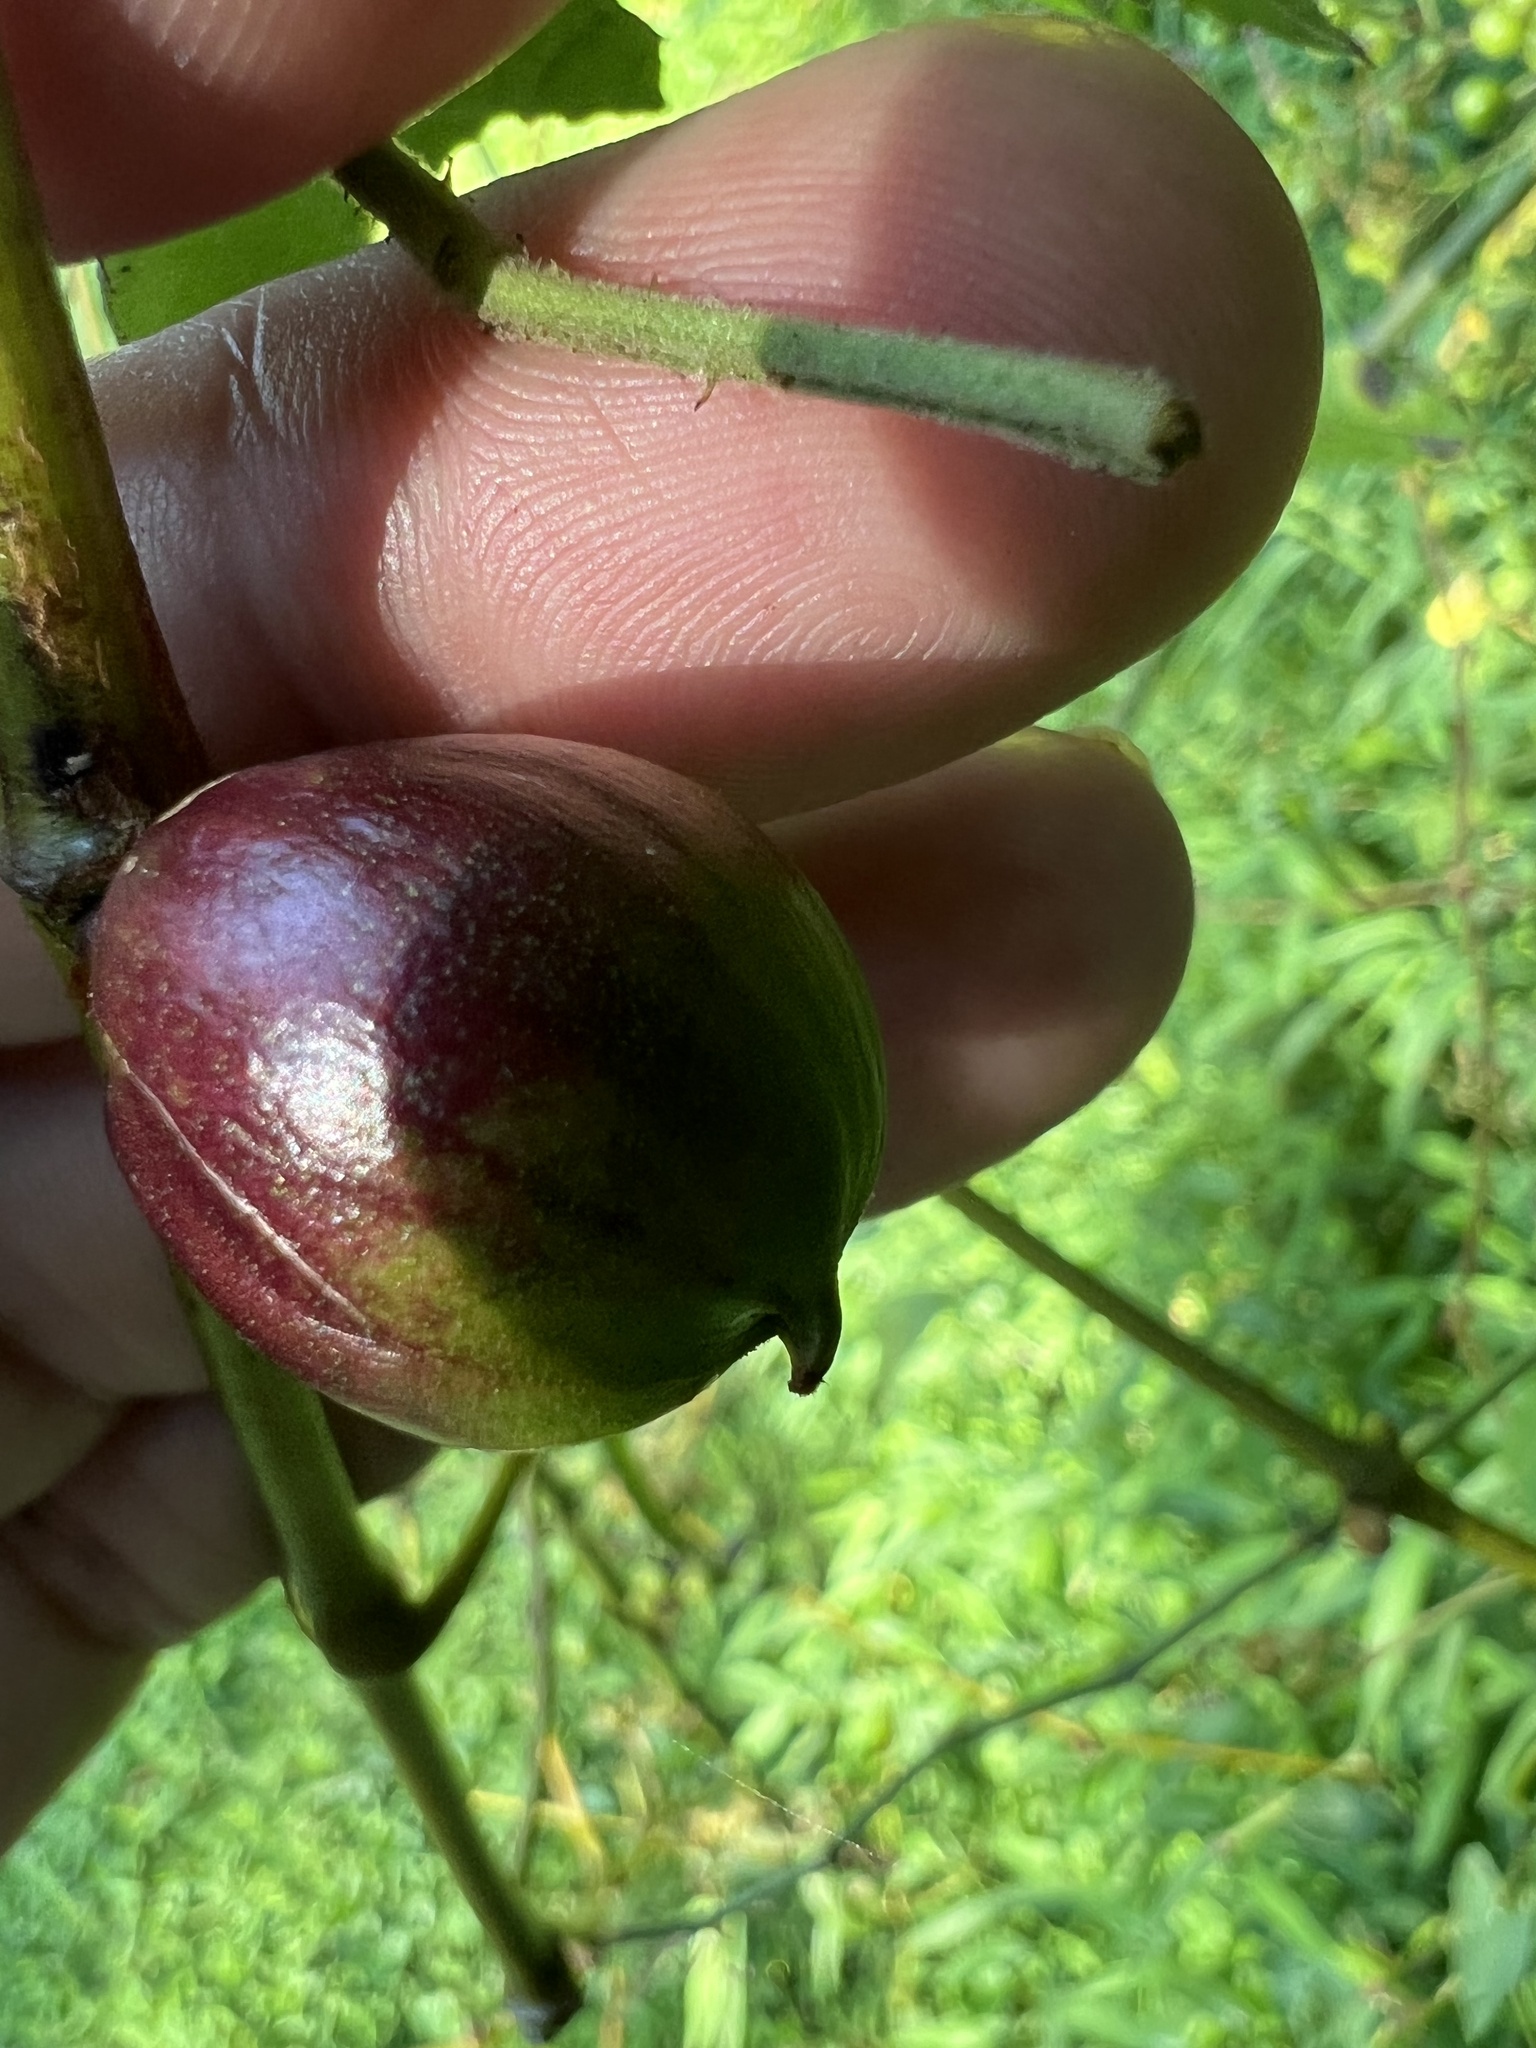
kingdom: Animalia
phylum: Arthropoda
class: Insecta
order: Diptera
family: Cecidomyiidae
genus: Ampelomyia
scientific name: Ampelomyia vitispomum
